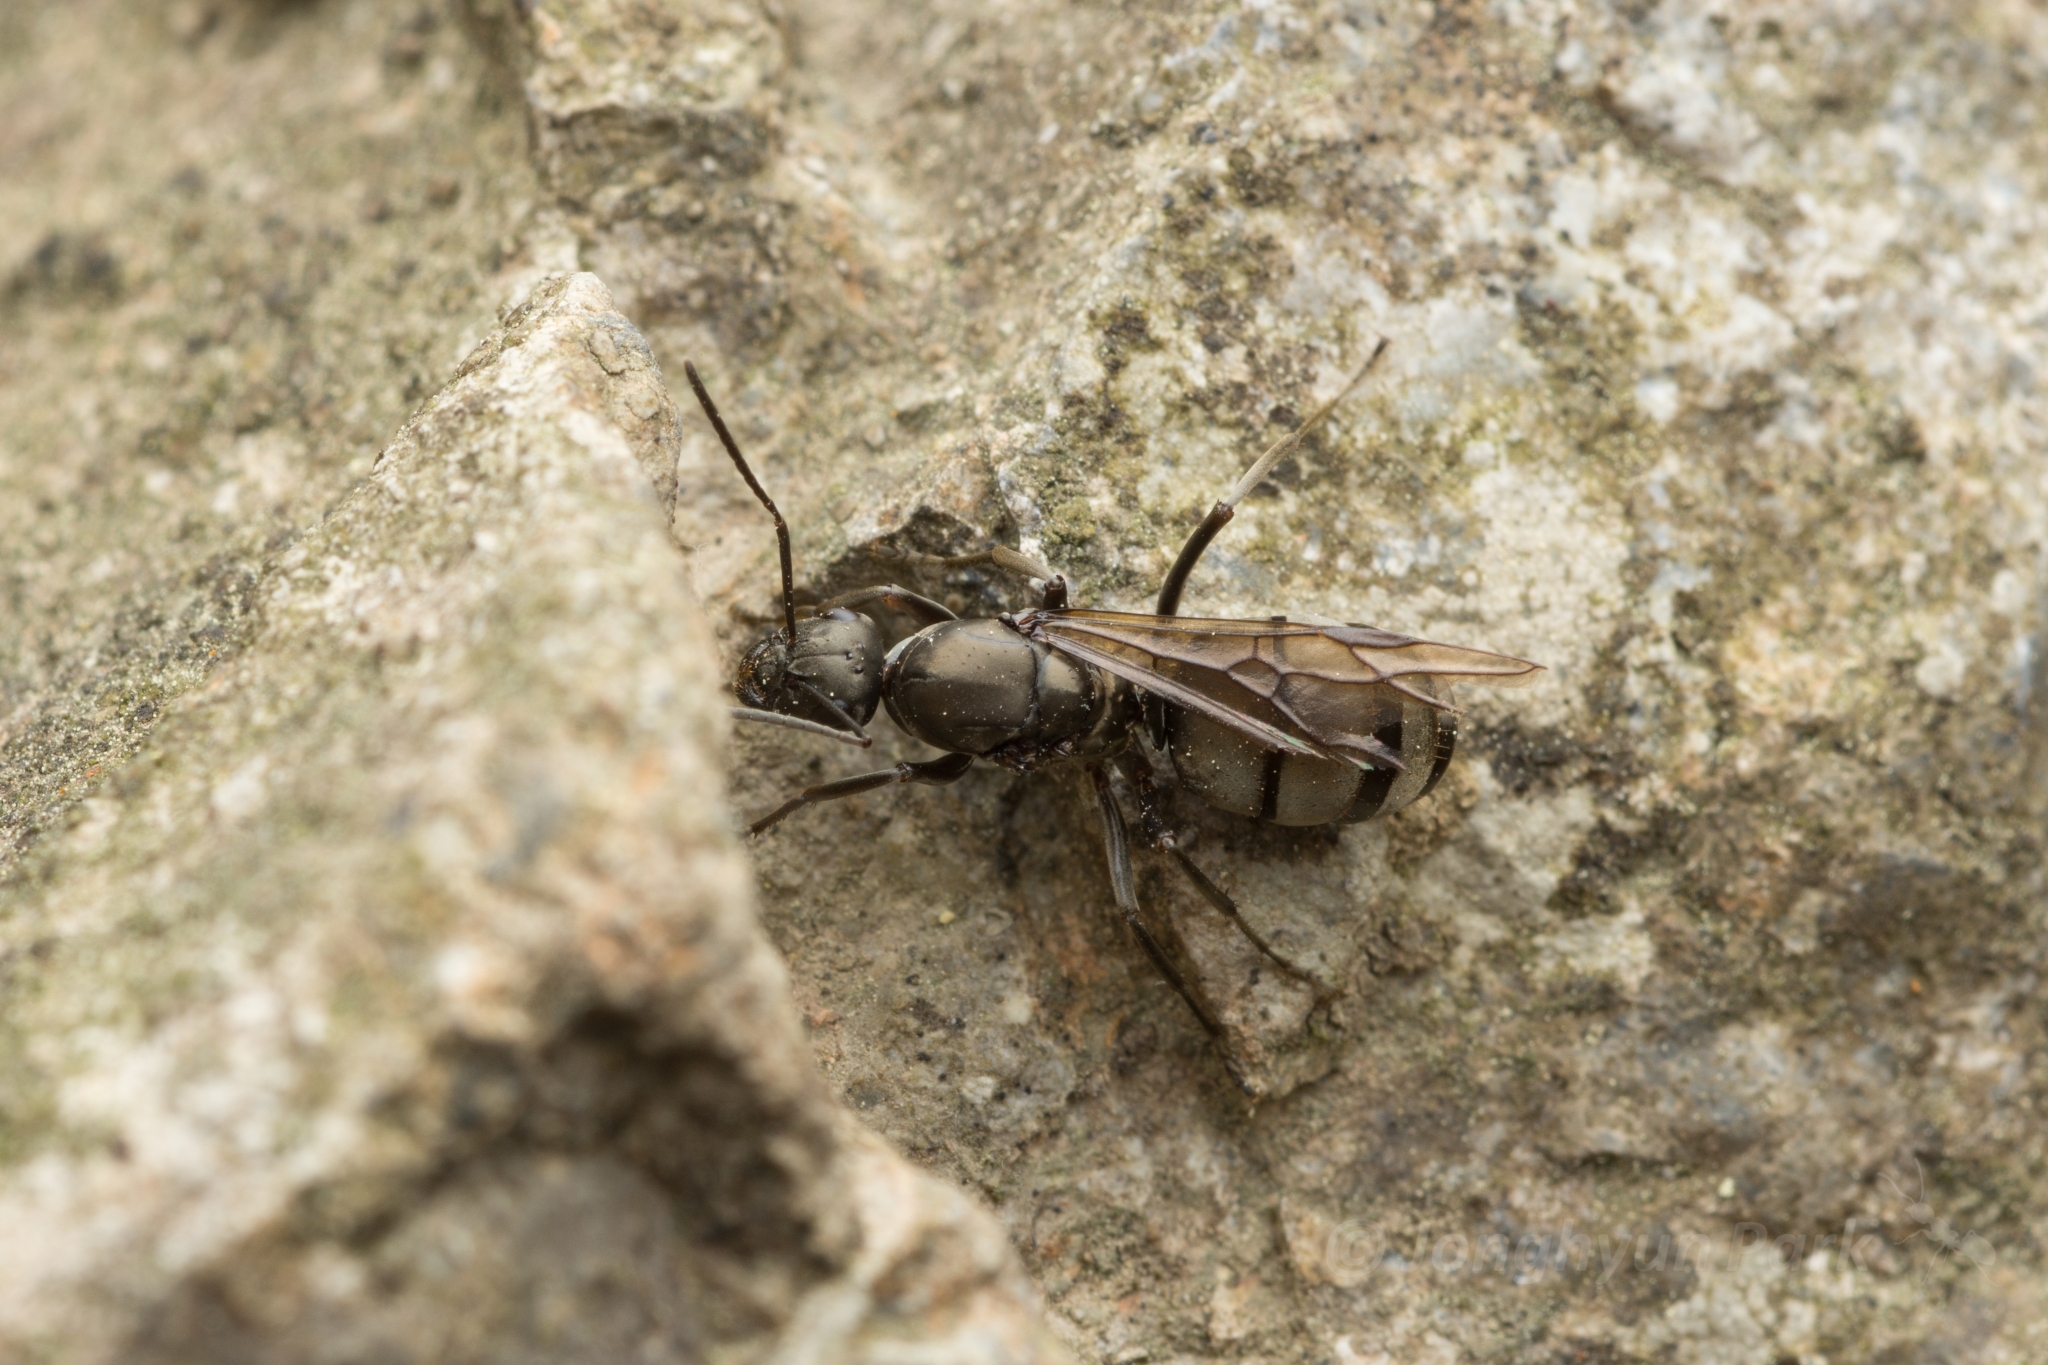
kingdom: Animalia
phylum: Arthropoda
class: Insecta
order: Hymenoptera
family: Formicidae
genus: Formica
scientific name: Formica hayashi
